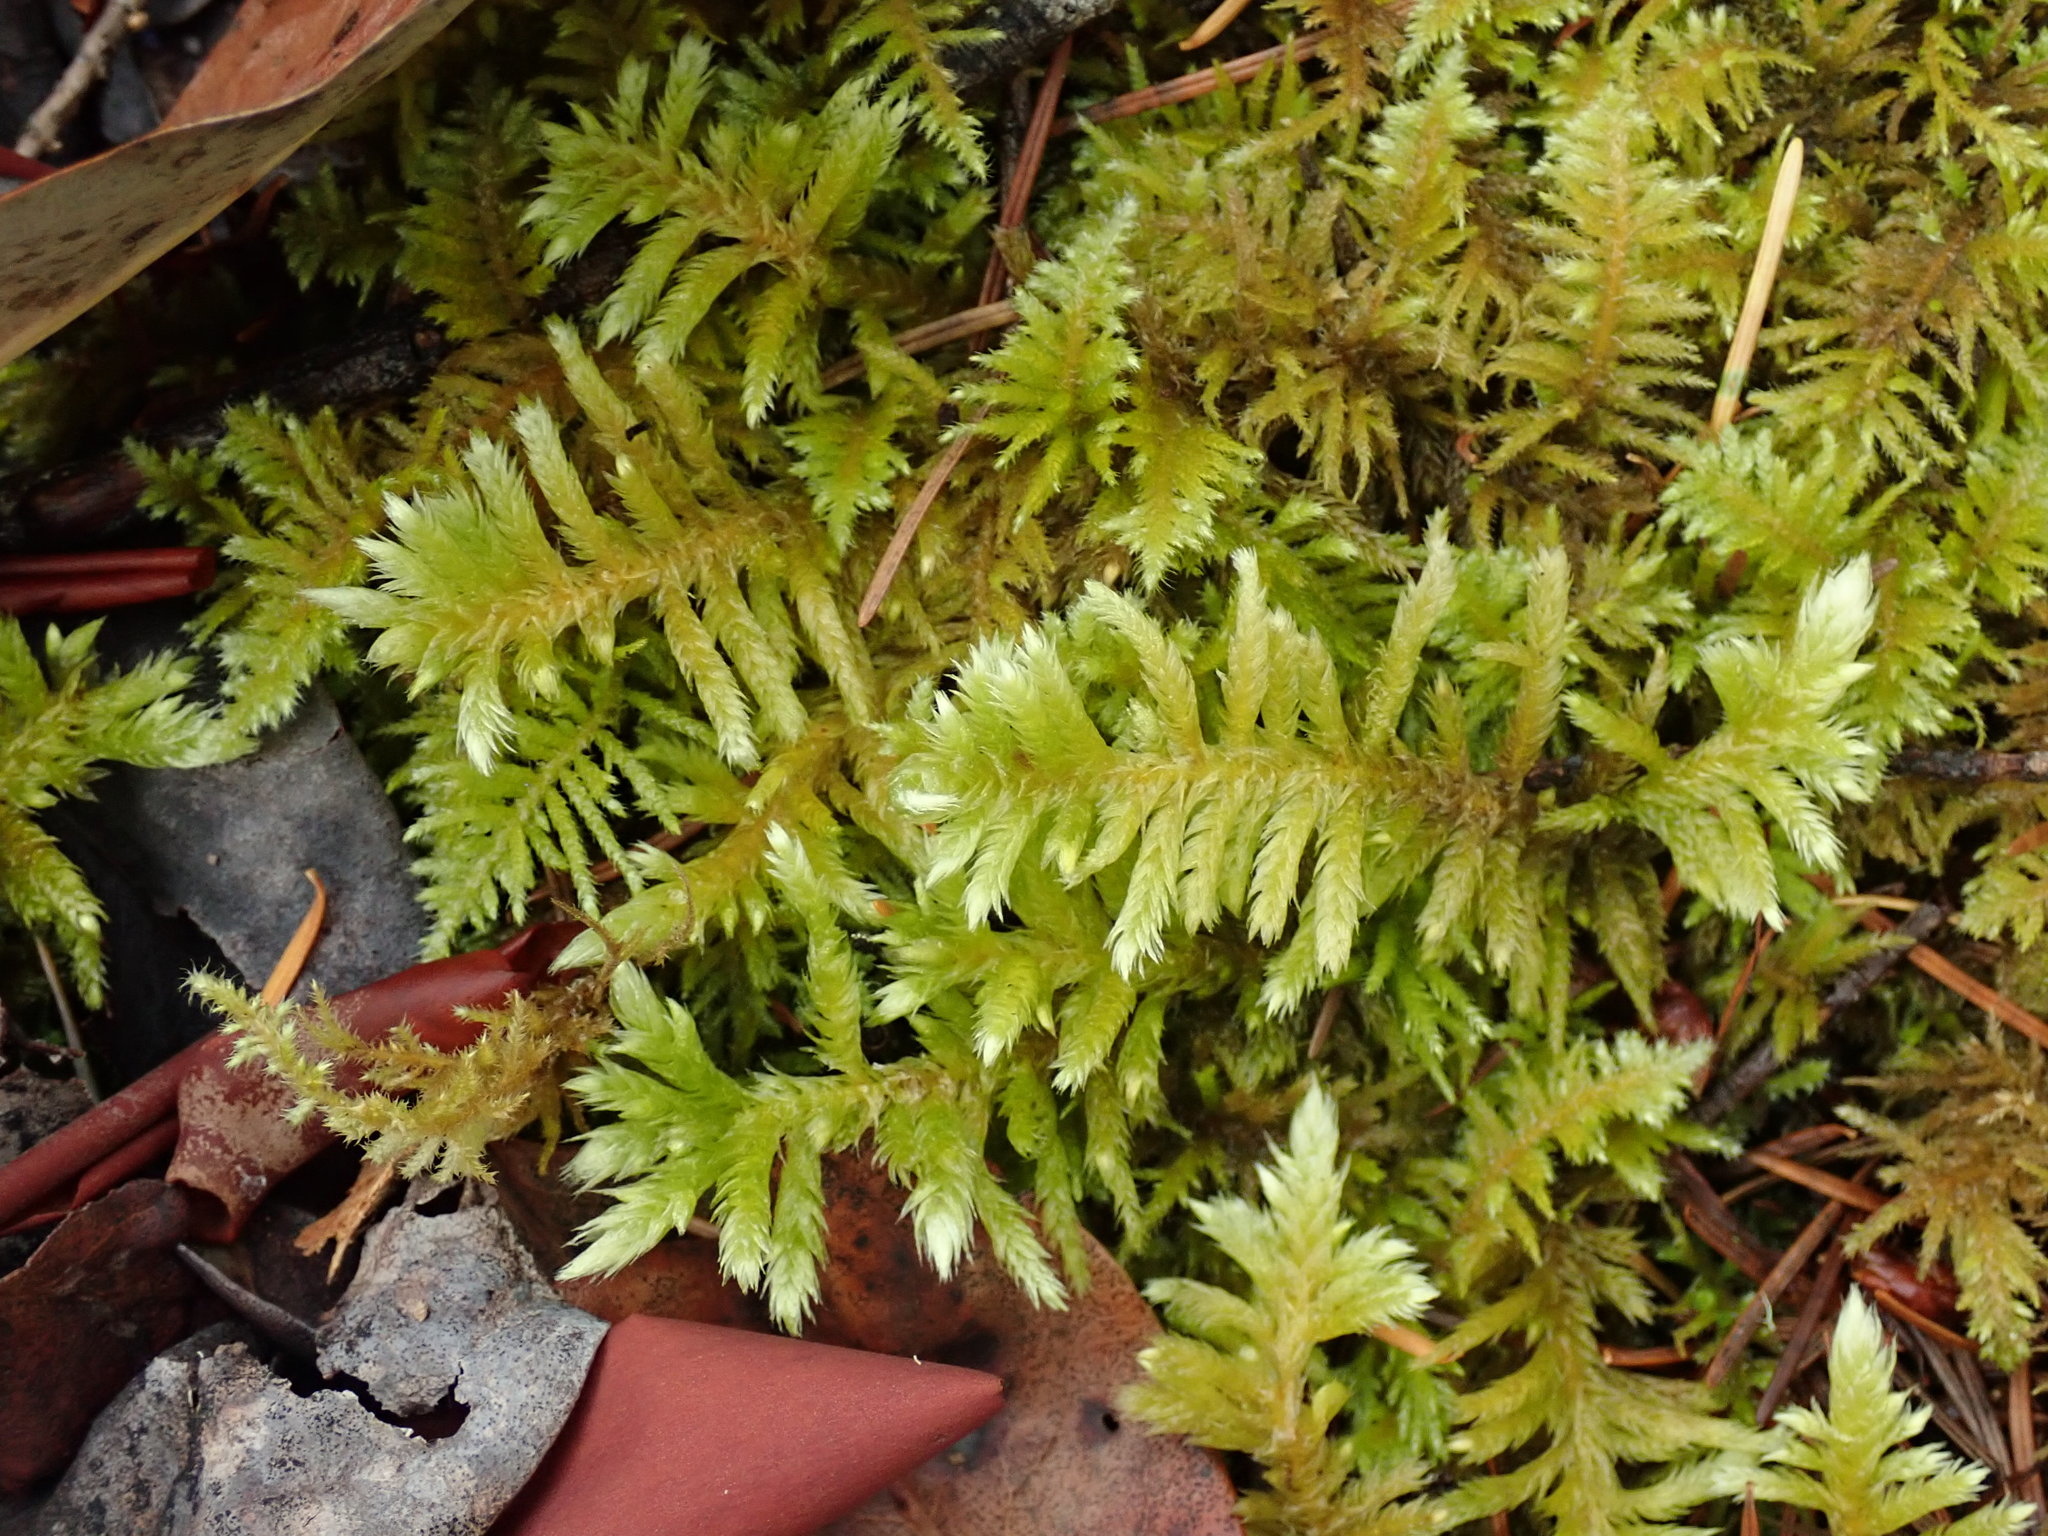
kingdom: Plantae
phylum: Bryophyta
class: Bryopsida
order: Hypnales
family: Brachytheciaceae
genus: Homalothecium
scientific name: Homalothecium megaptilum
